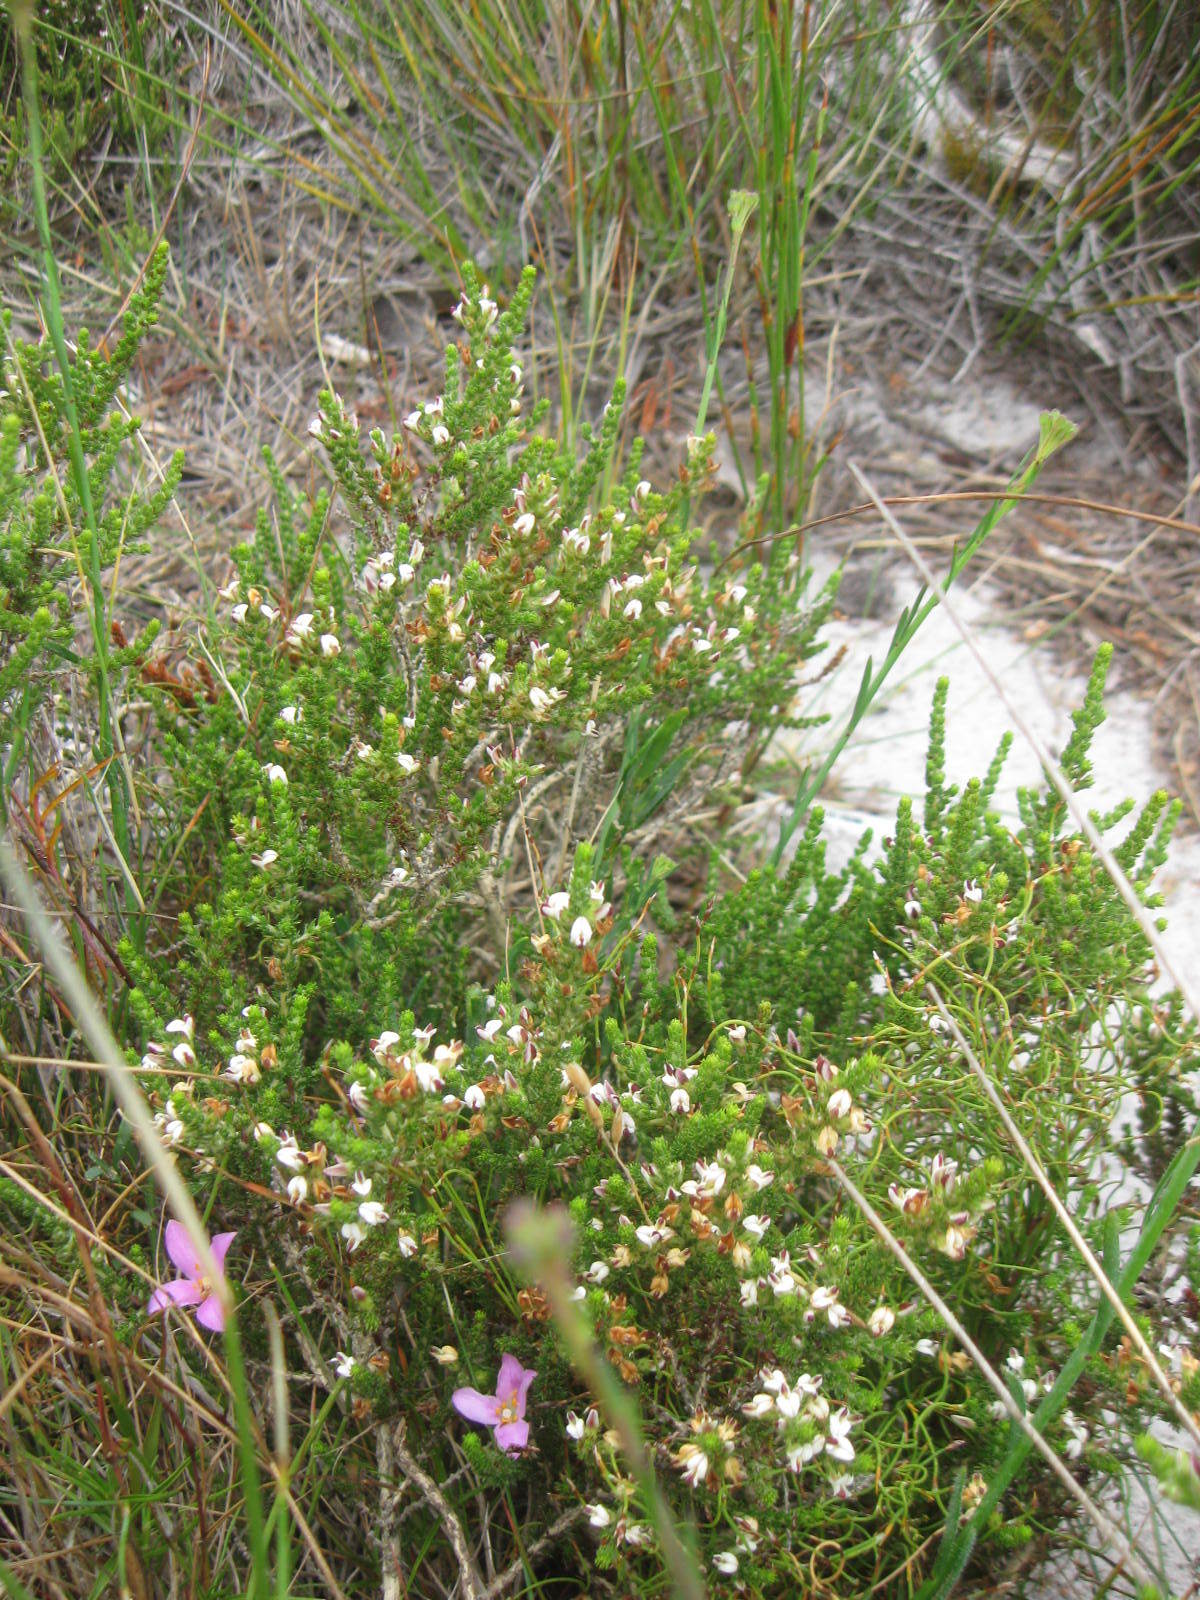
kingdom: Plantae
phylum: Tracheophyta
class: Magnoliopsida
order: Fabales
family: Fabaceae
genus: Aspalathus
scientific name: Aspalathus hispida
